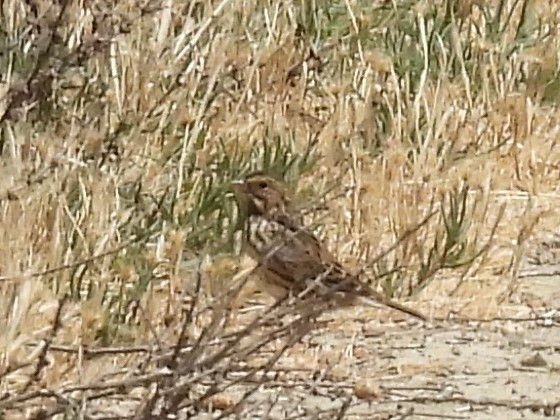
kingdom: Animalia
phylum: Chordata
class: Aves
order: Passeriformes
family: Passerellidae
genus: Passerculus
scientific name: Passerculus sandwichensis
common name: Savannah sparrow
